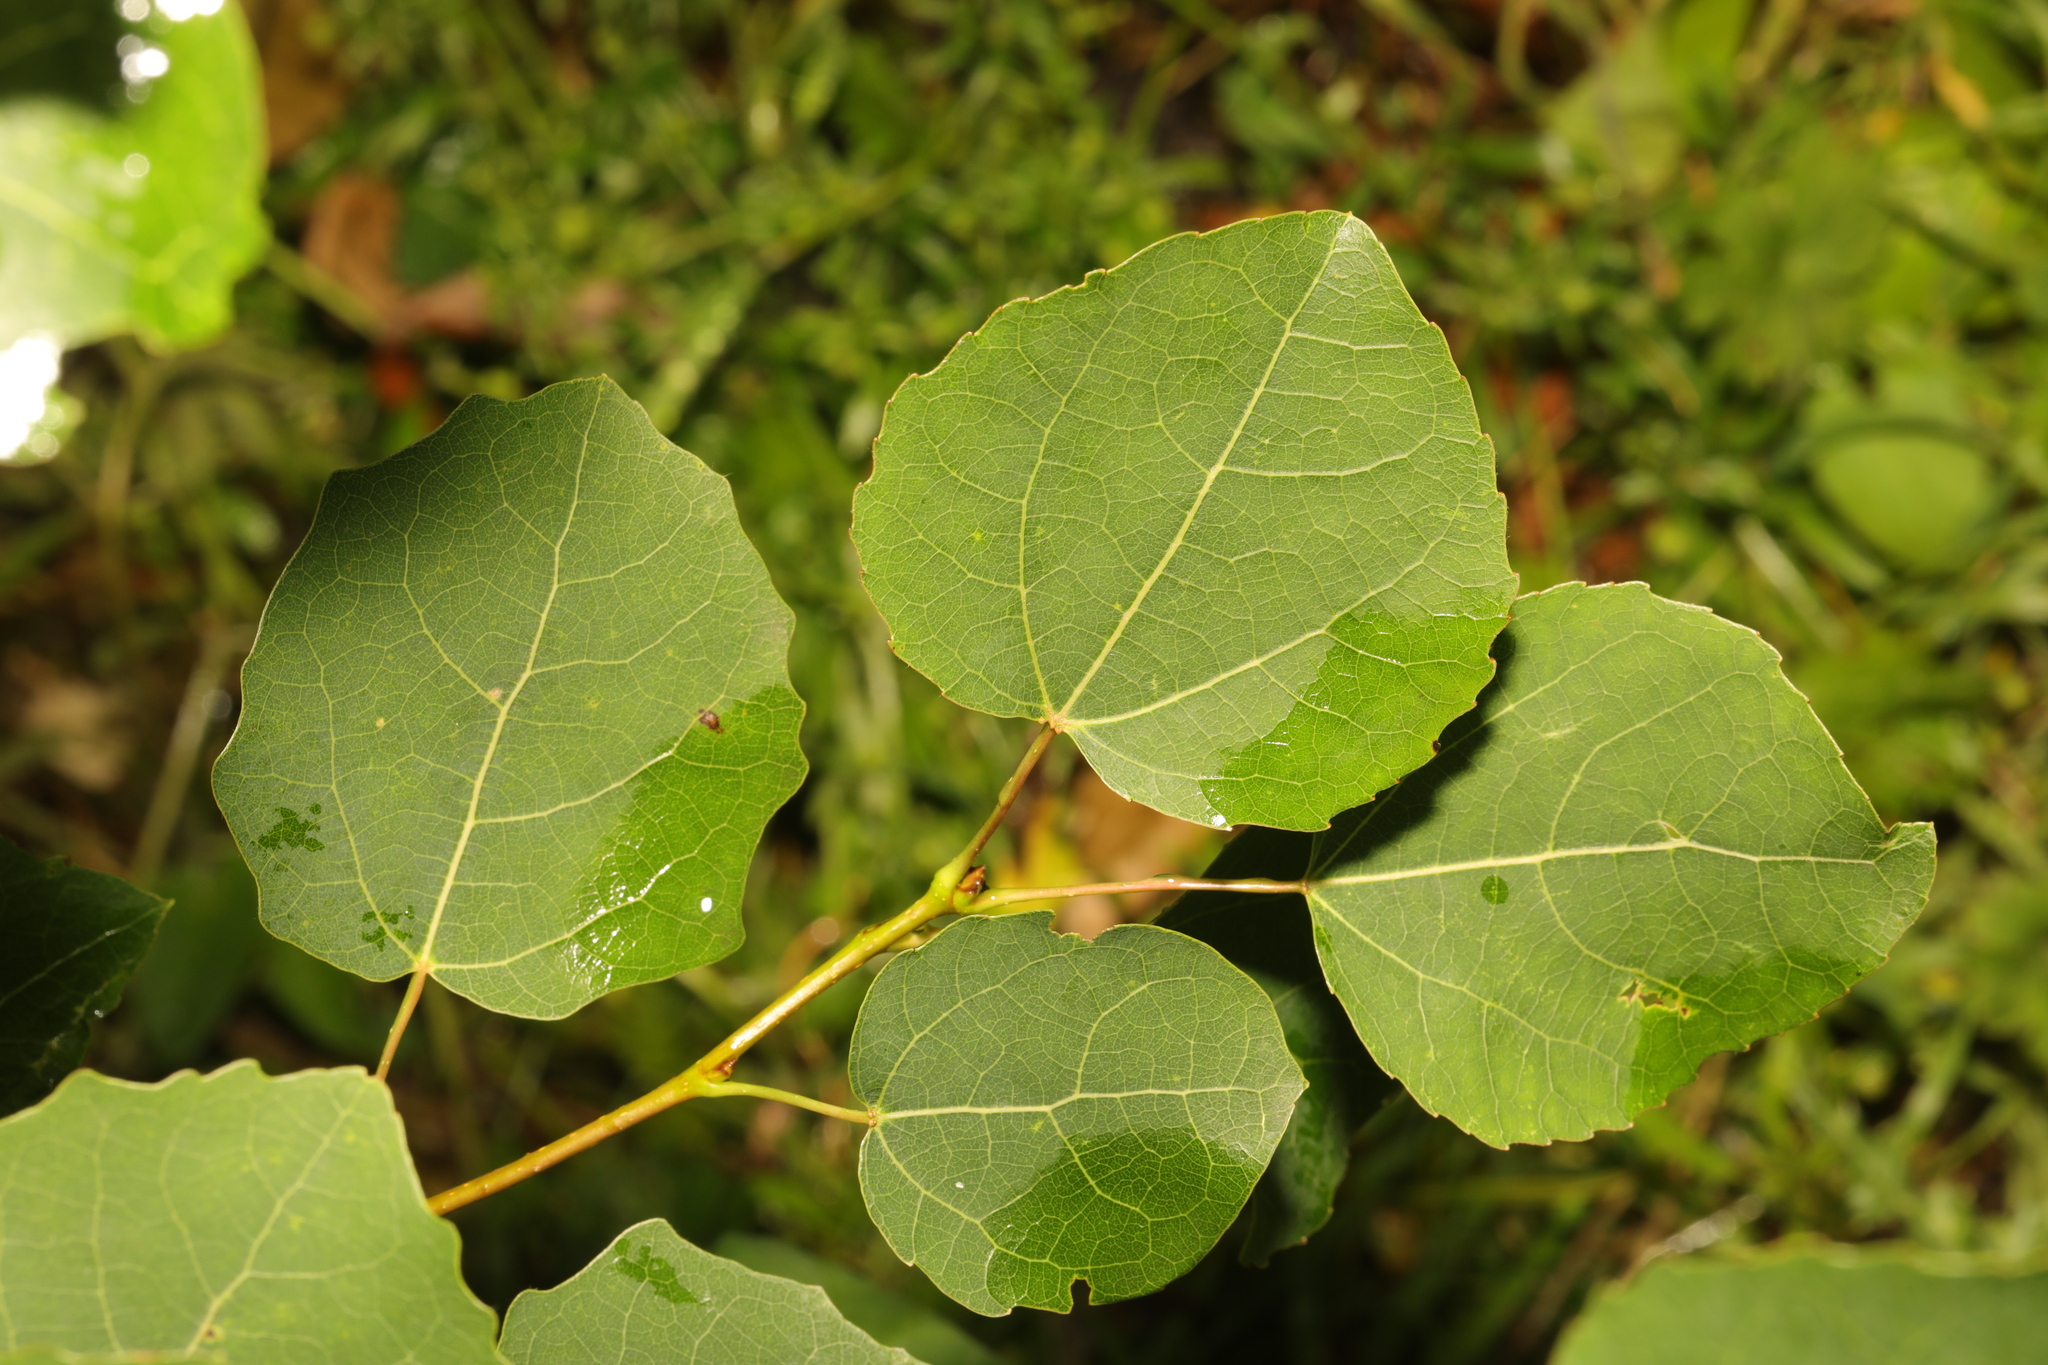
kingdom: Plantae
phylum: Tracheophyta
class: Magnoliopsida
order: Malpighiales
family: Salicaceae
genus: Populus
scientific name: Populus tremula
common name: European aspen
